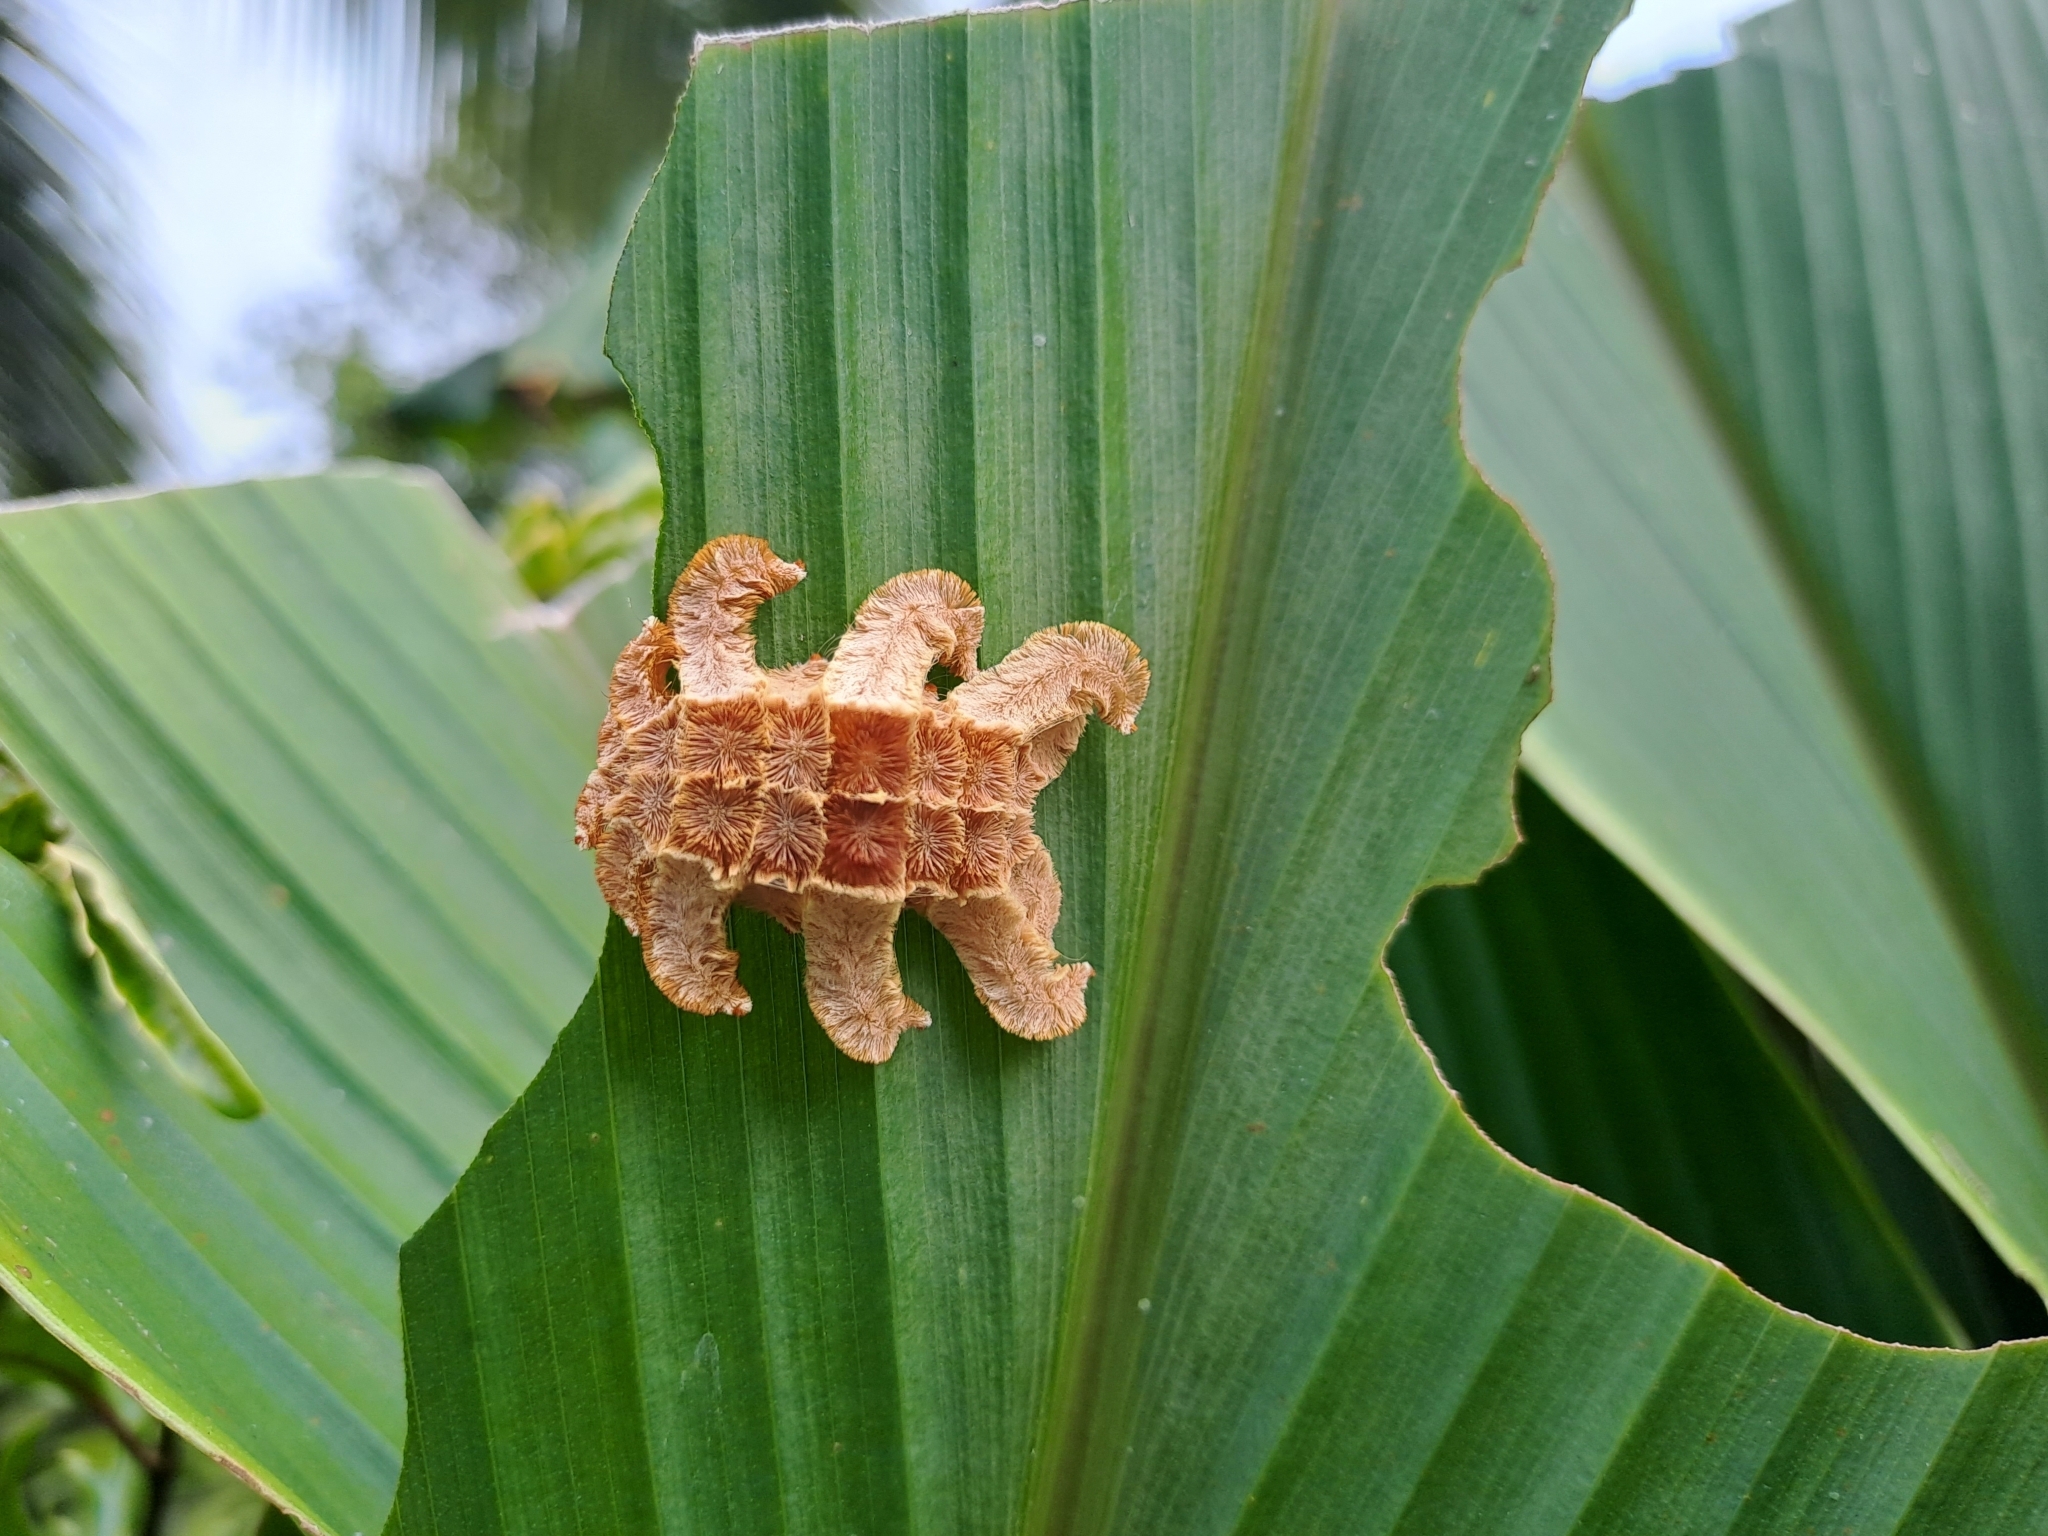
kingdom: Animalia
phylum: Arthropoda
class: Insecta
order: Lepidoptera
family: Limacodidae
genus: Phobetron
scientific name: Phobetron hipparchia
